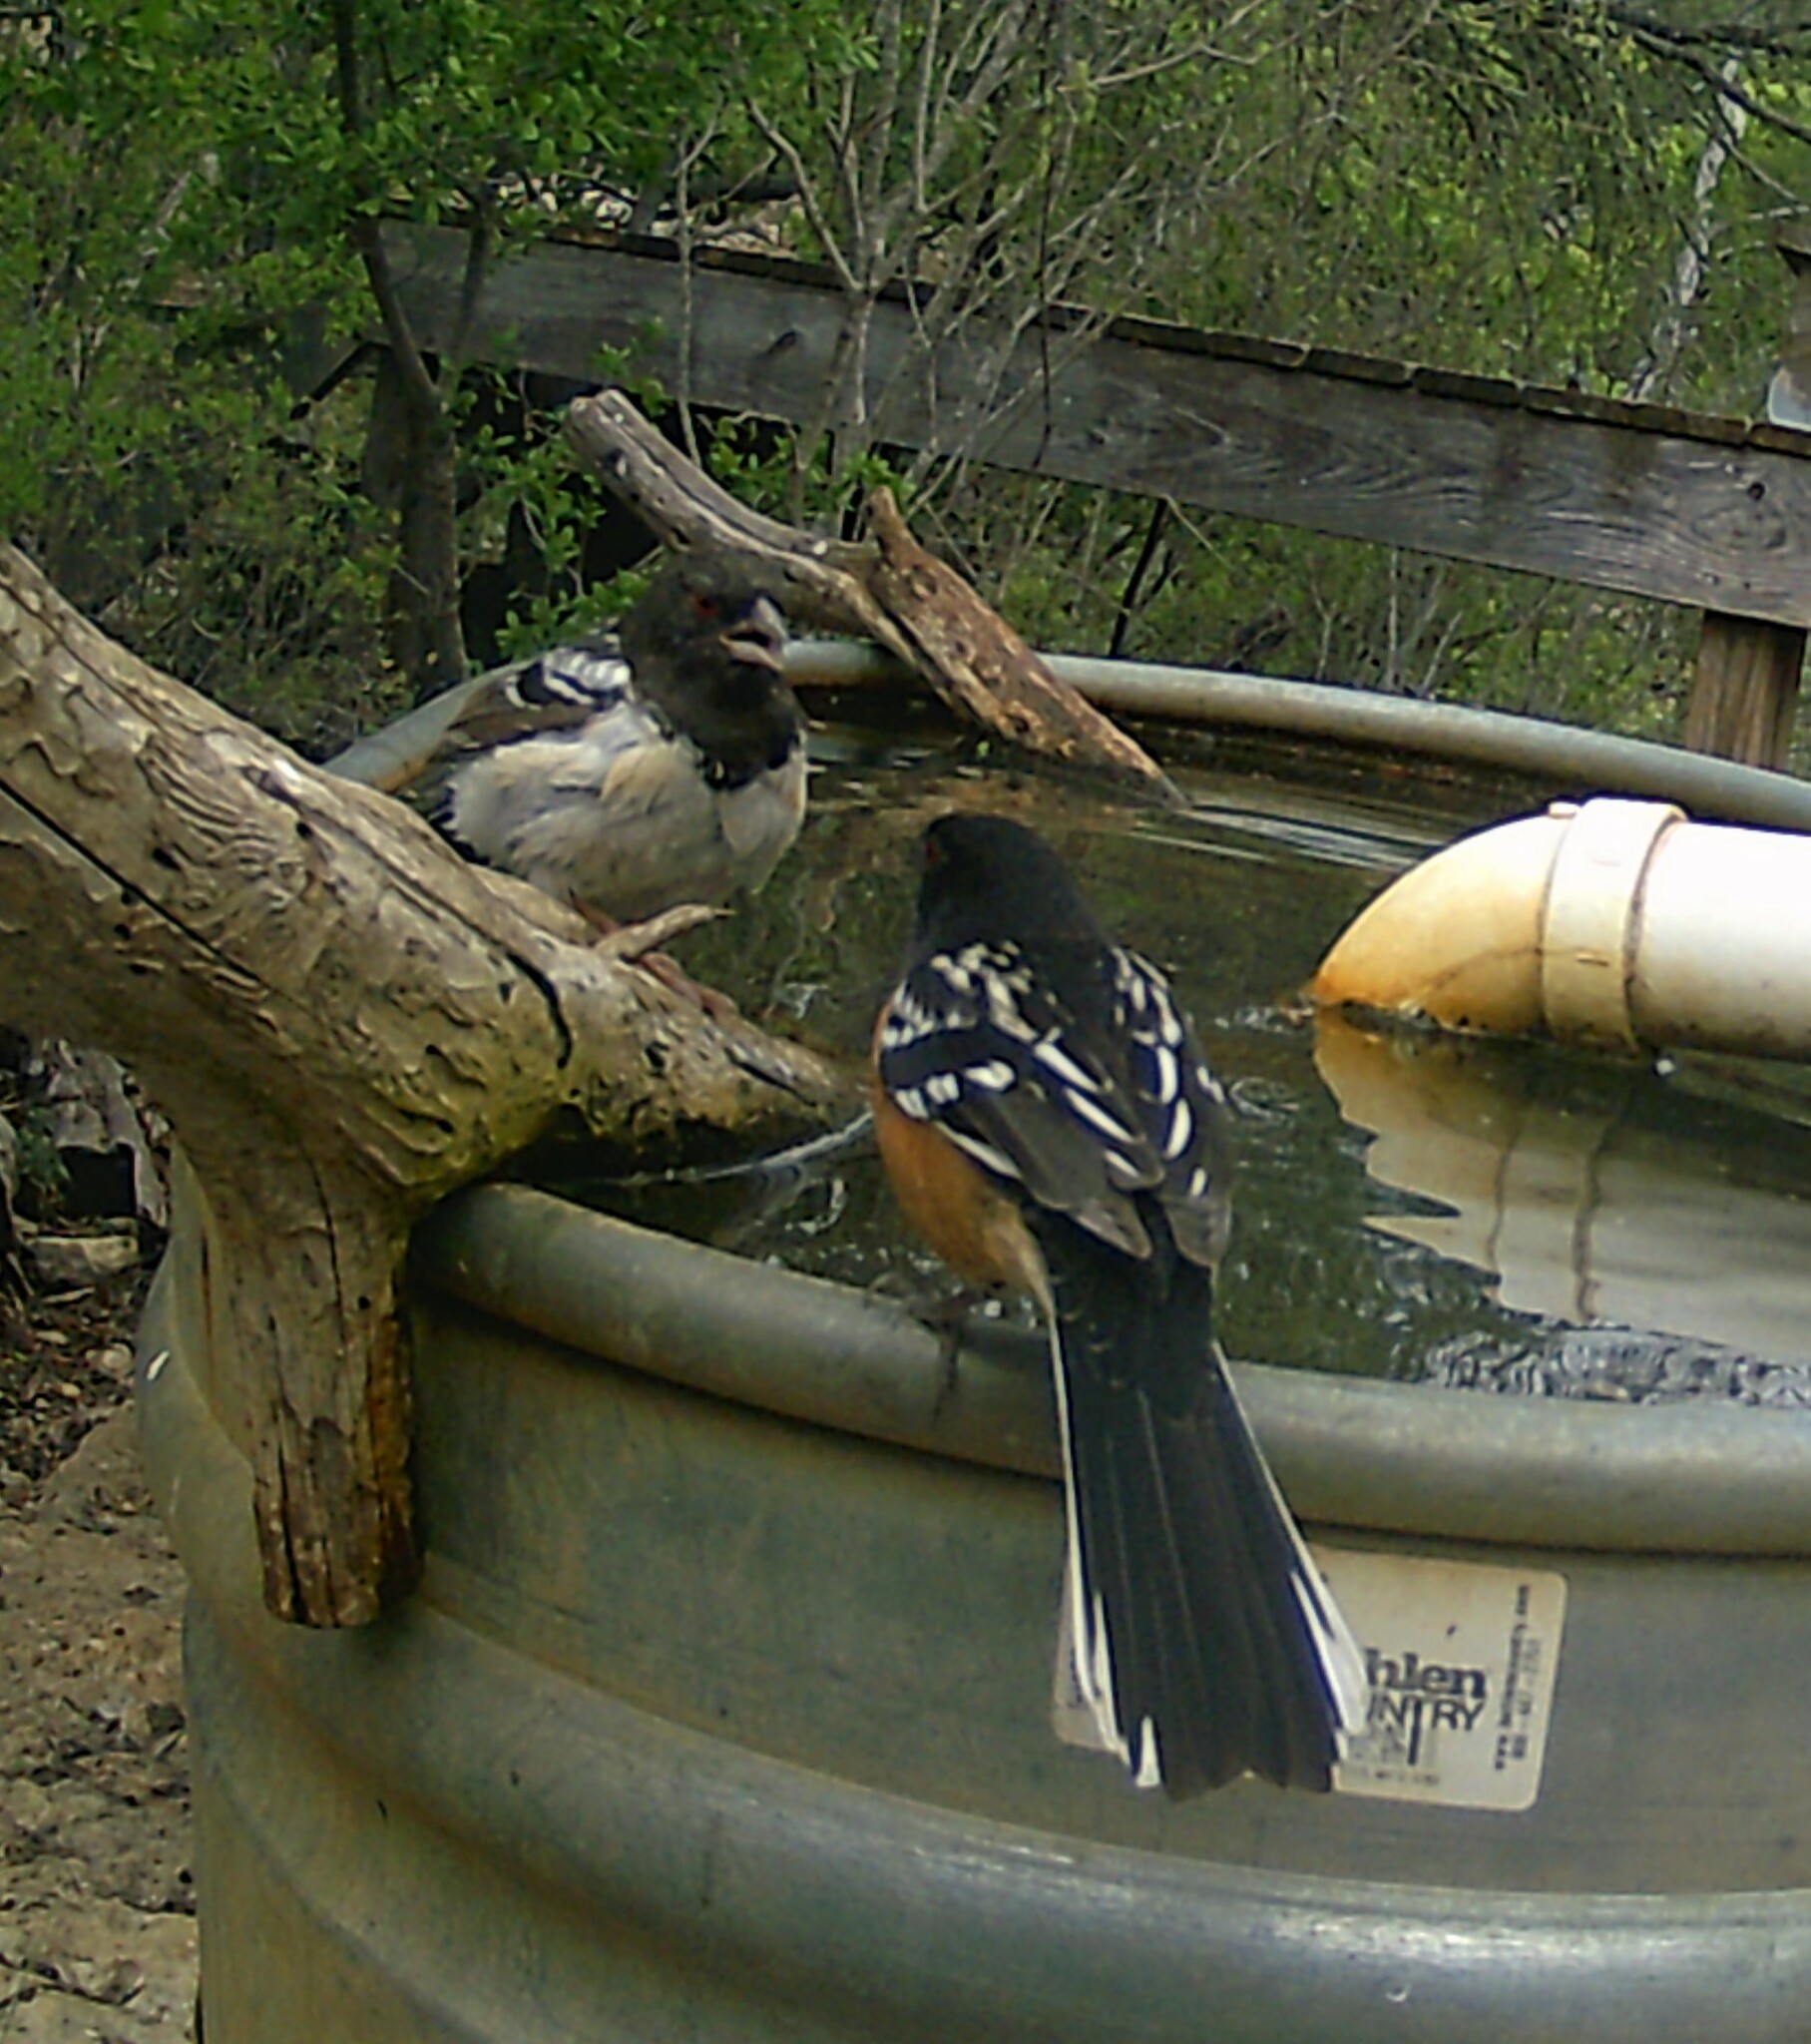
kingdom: Animalia
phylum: Chordata
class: Aves
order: Passeriformes
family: Passerellidae
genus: Pipilo
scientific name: Pipilo maculatus
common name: Spotted towhee
